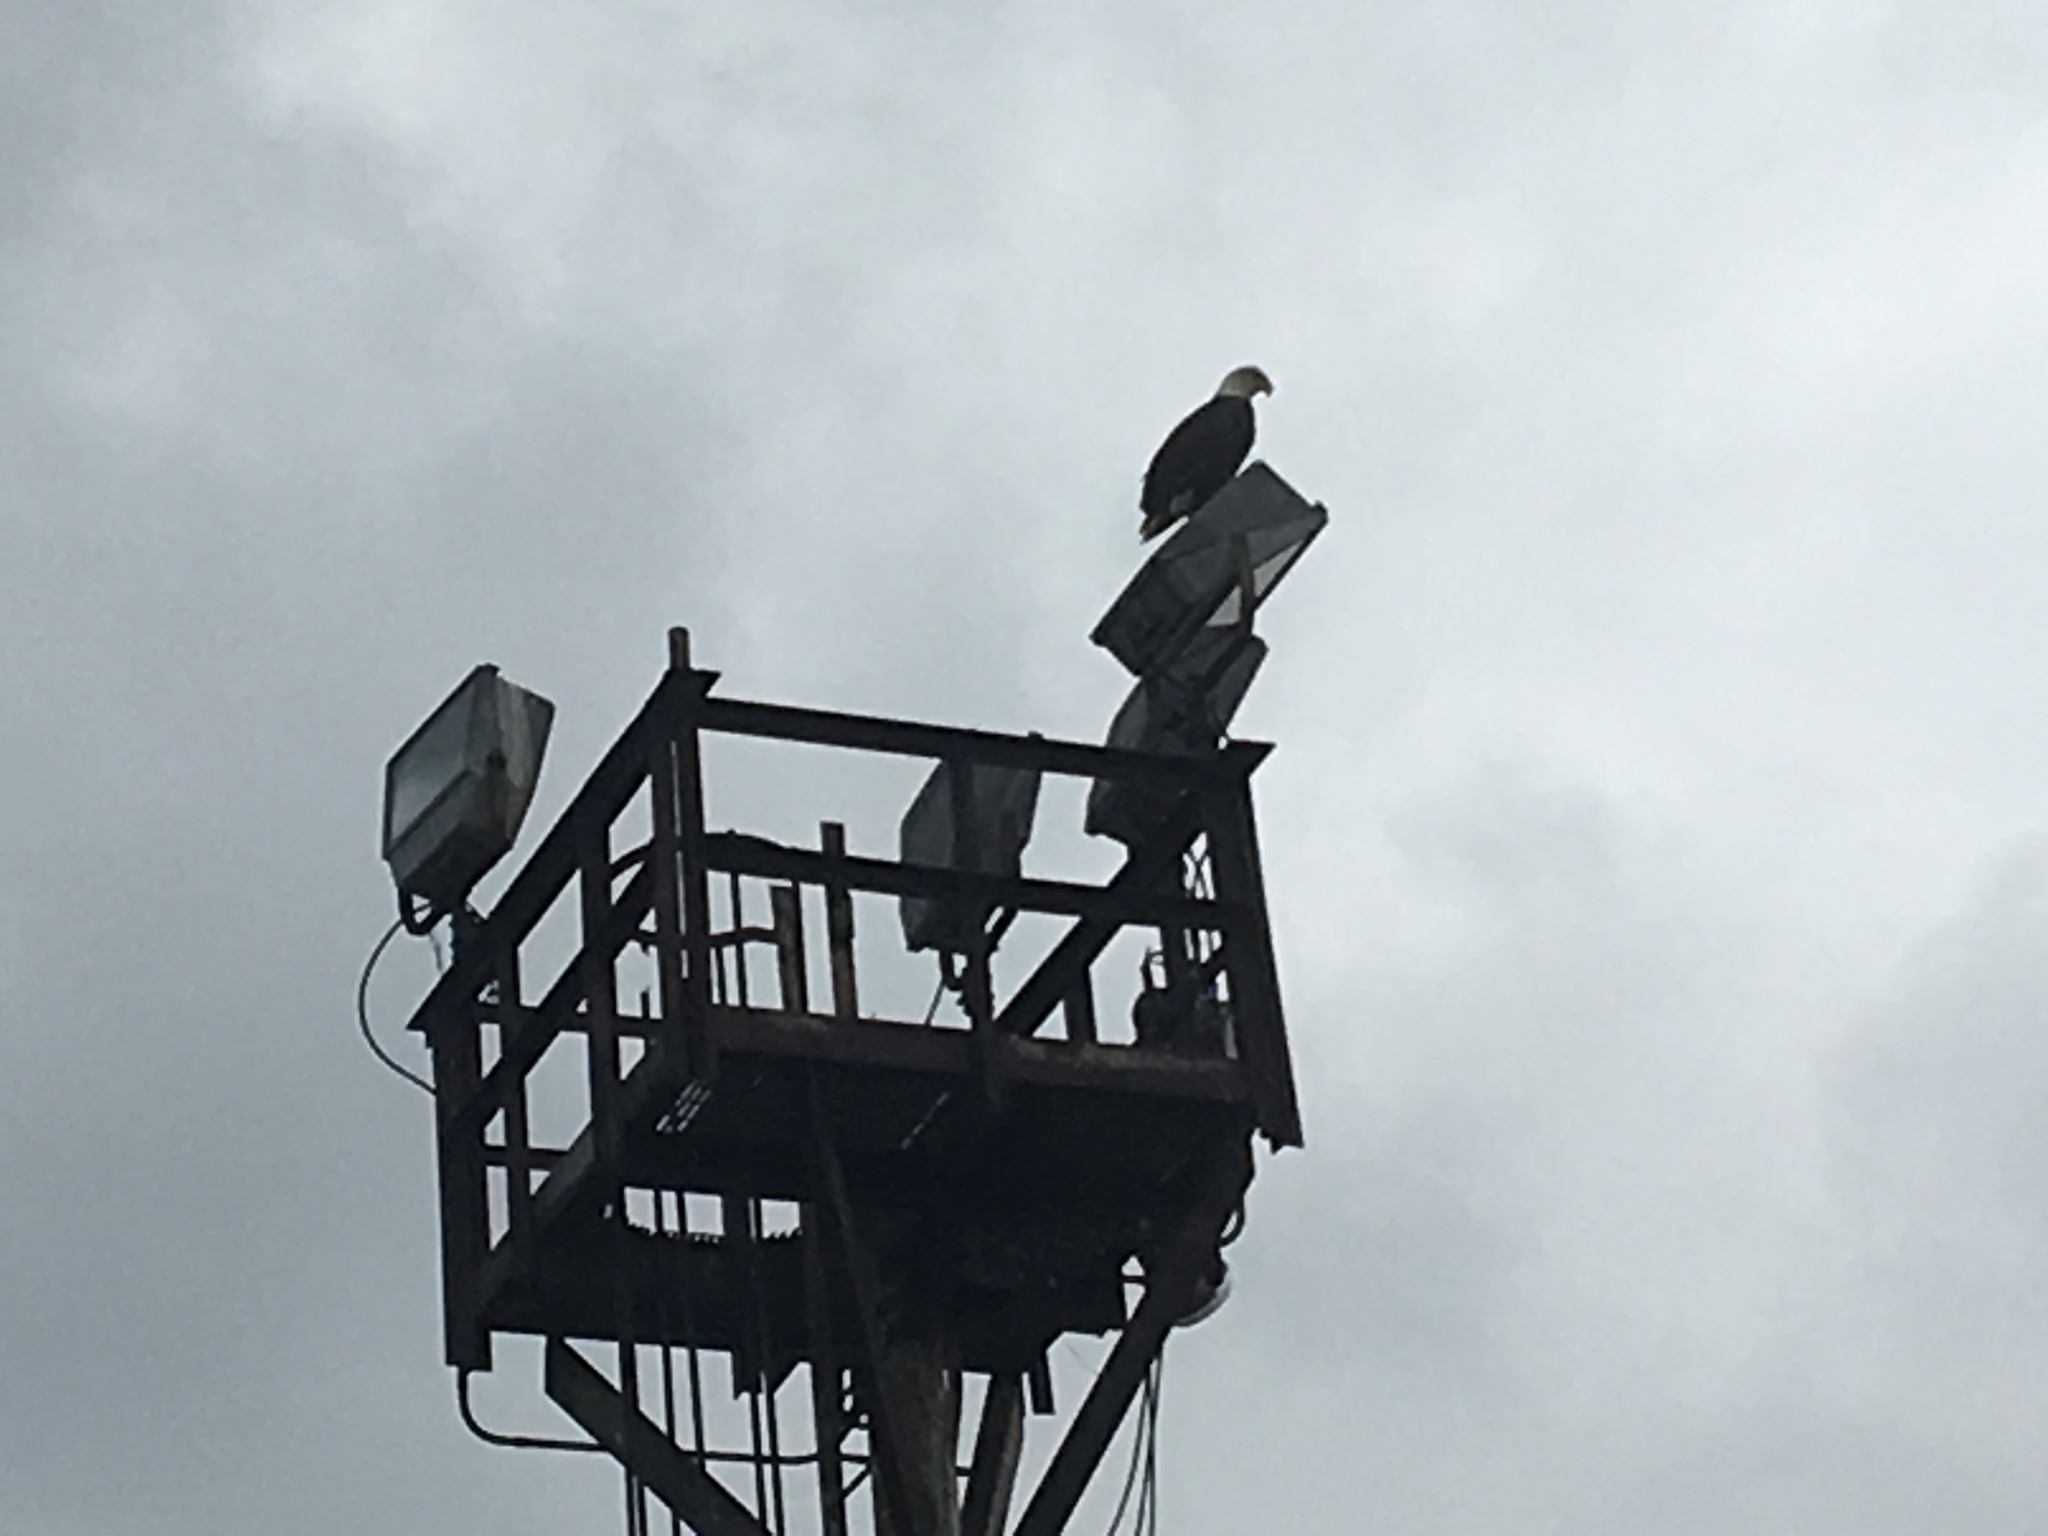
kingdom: Animalia
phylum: Chordata
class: Aves
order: Accipitriformes
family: Accipitridae
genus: Haliaeetus
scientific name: Haliaeetus leucocephalus
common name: Bald eagle
